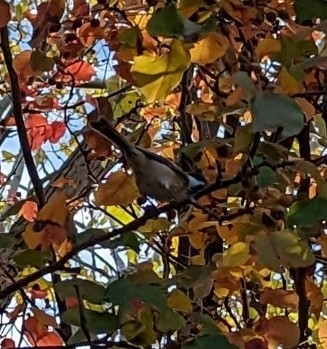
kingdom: Animalia
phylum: Chordata
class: Aves
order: Passeriformes
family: Paridae
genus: Poecile
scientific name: Poecile atricapillus
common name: Black-capped chickadee
